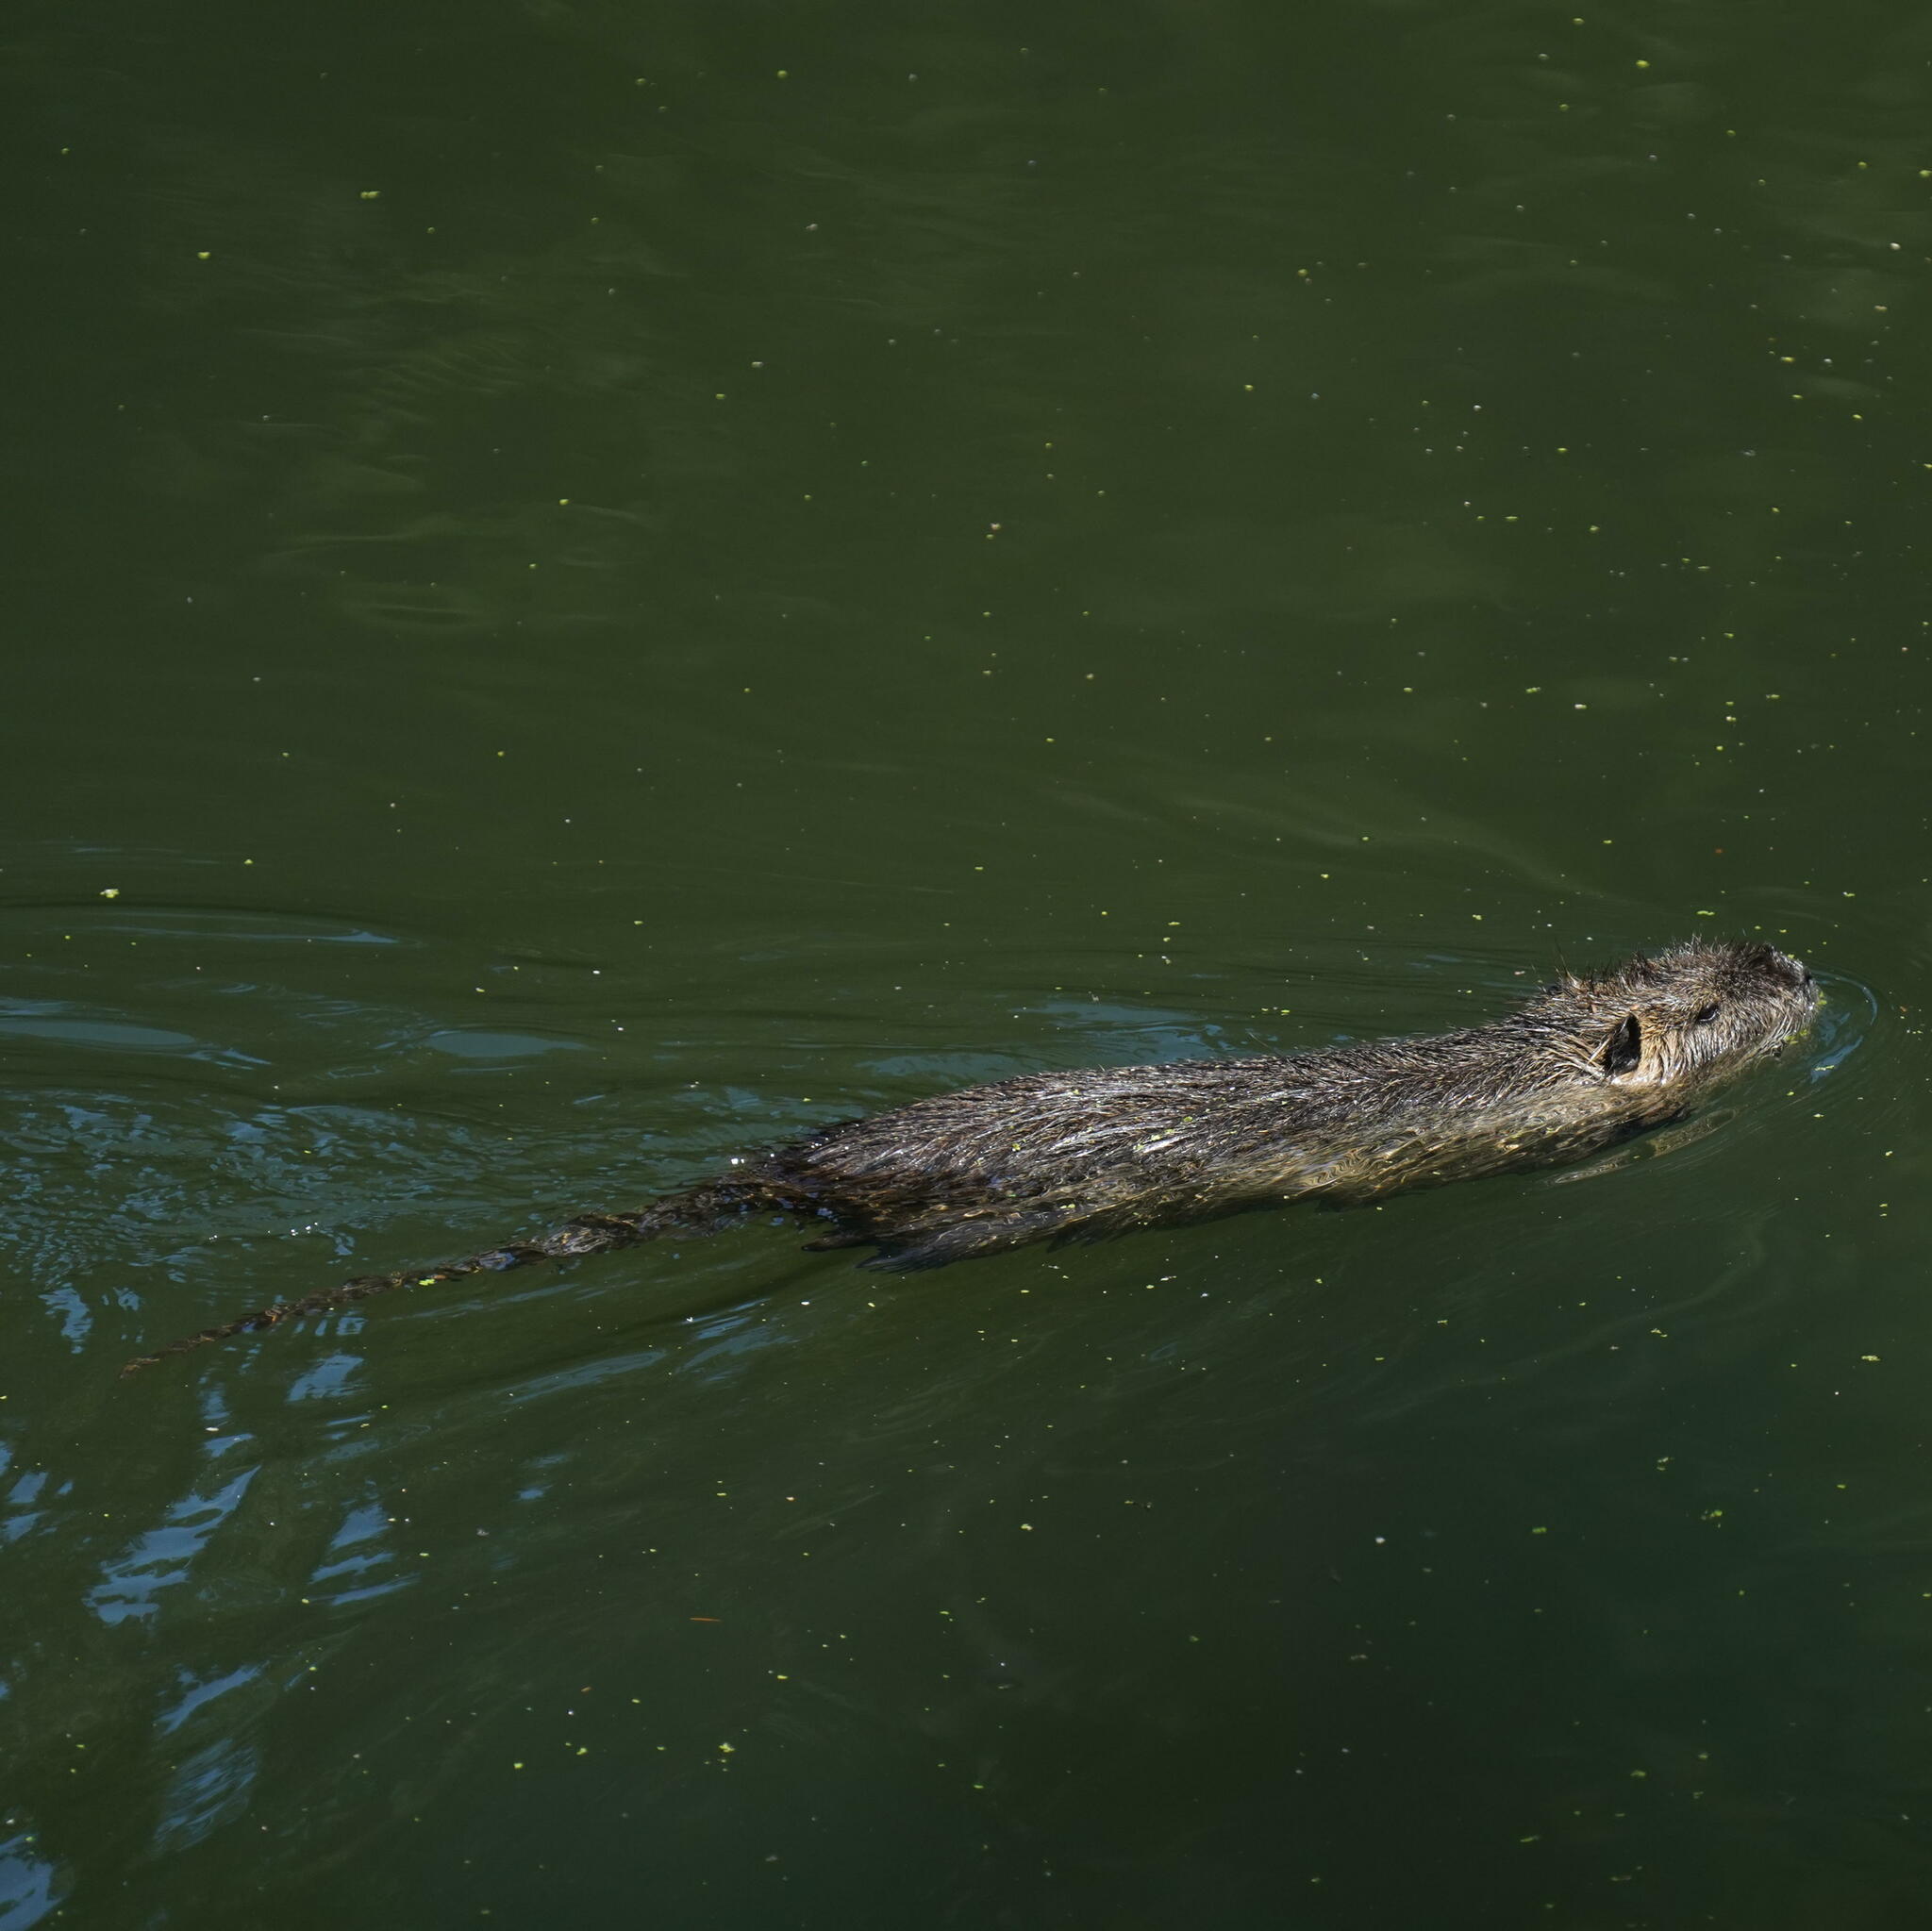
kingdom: Animalia
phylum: Chordata
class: Mammalia
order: Rodentia
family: Myocastoridae
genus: Myocastor
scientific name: Myocastor coypus
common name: Coypu
